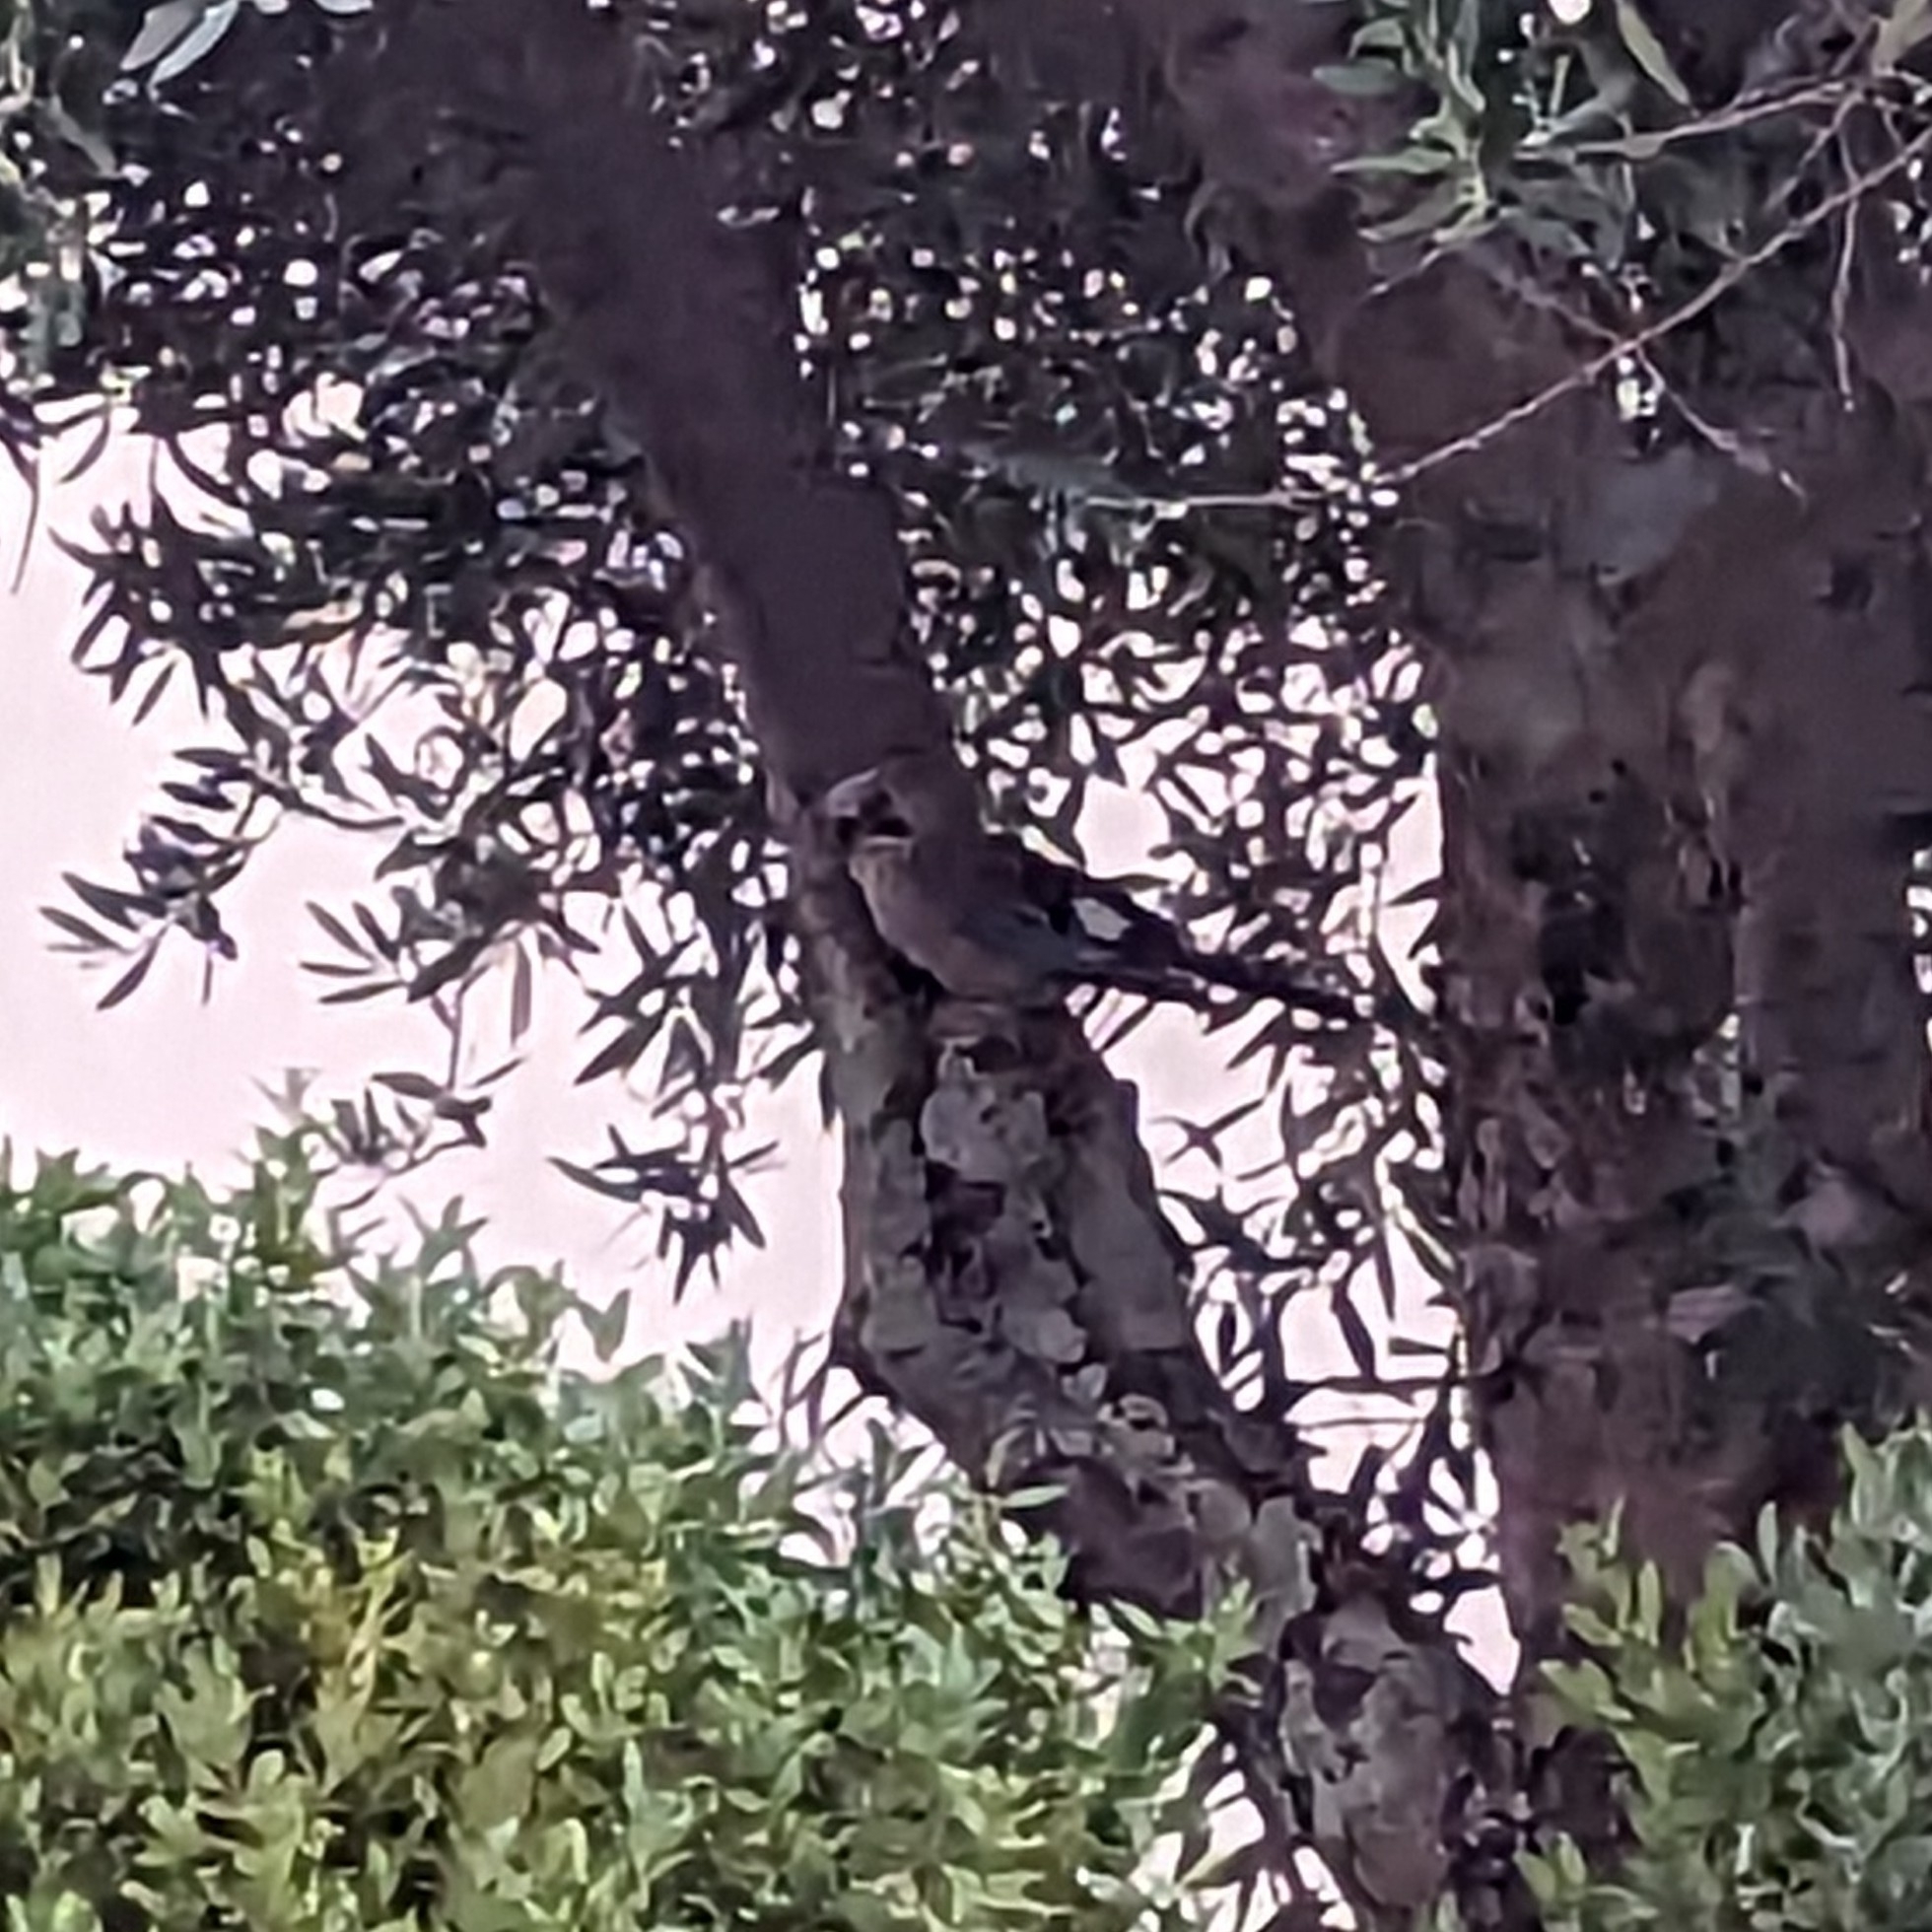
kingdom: Animalia
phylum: Chordata
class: Aves
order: Passeriformes
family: Corvidae
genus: Garrulus
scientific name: Garrulus glandarius
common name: Eurasian jay
